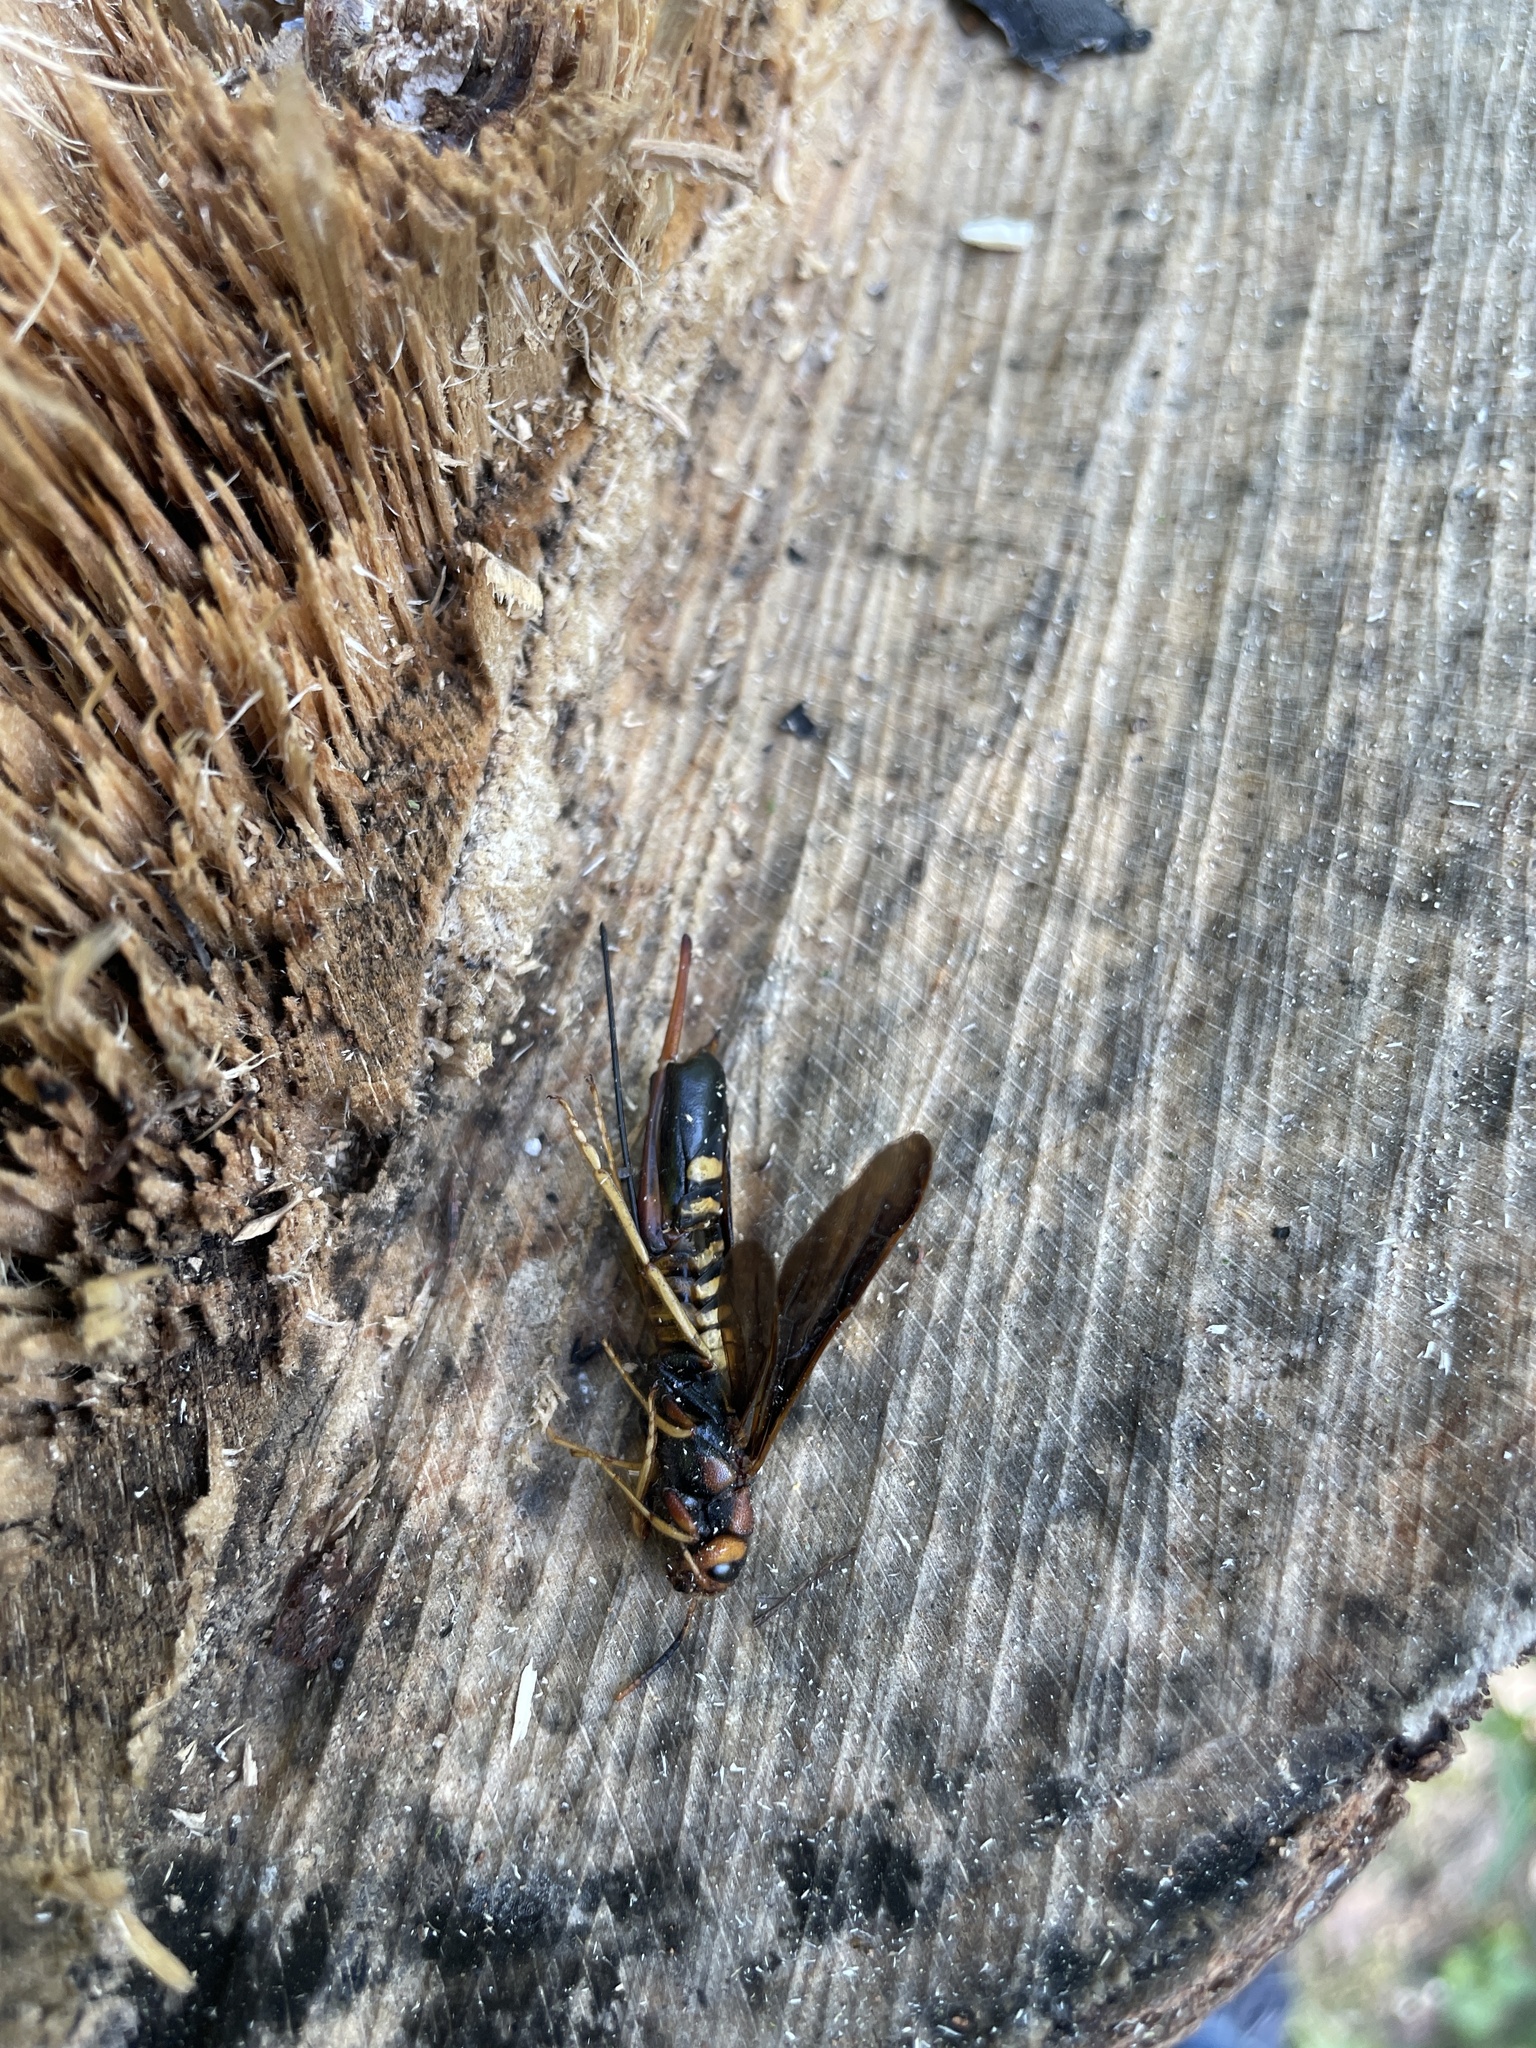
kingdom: Animalia
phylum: Arthropoda
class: Insecta
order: Hymenoptera
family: Siricidae
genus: Tremex
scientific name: Tremex columba
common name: Wasp
